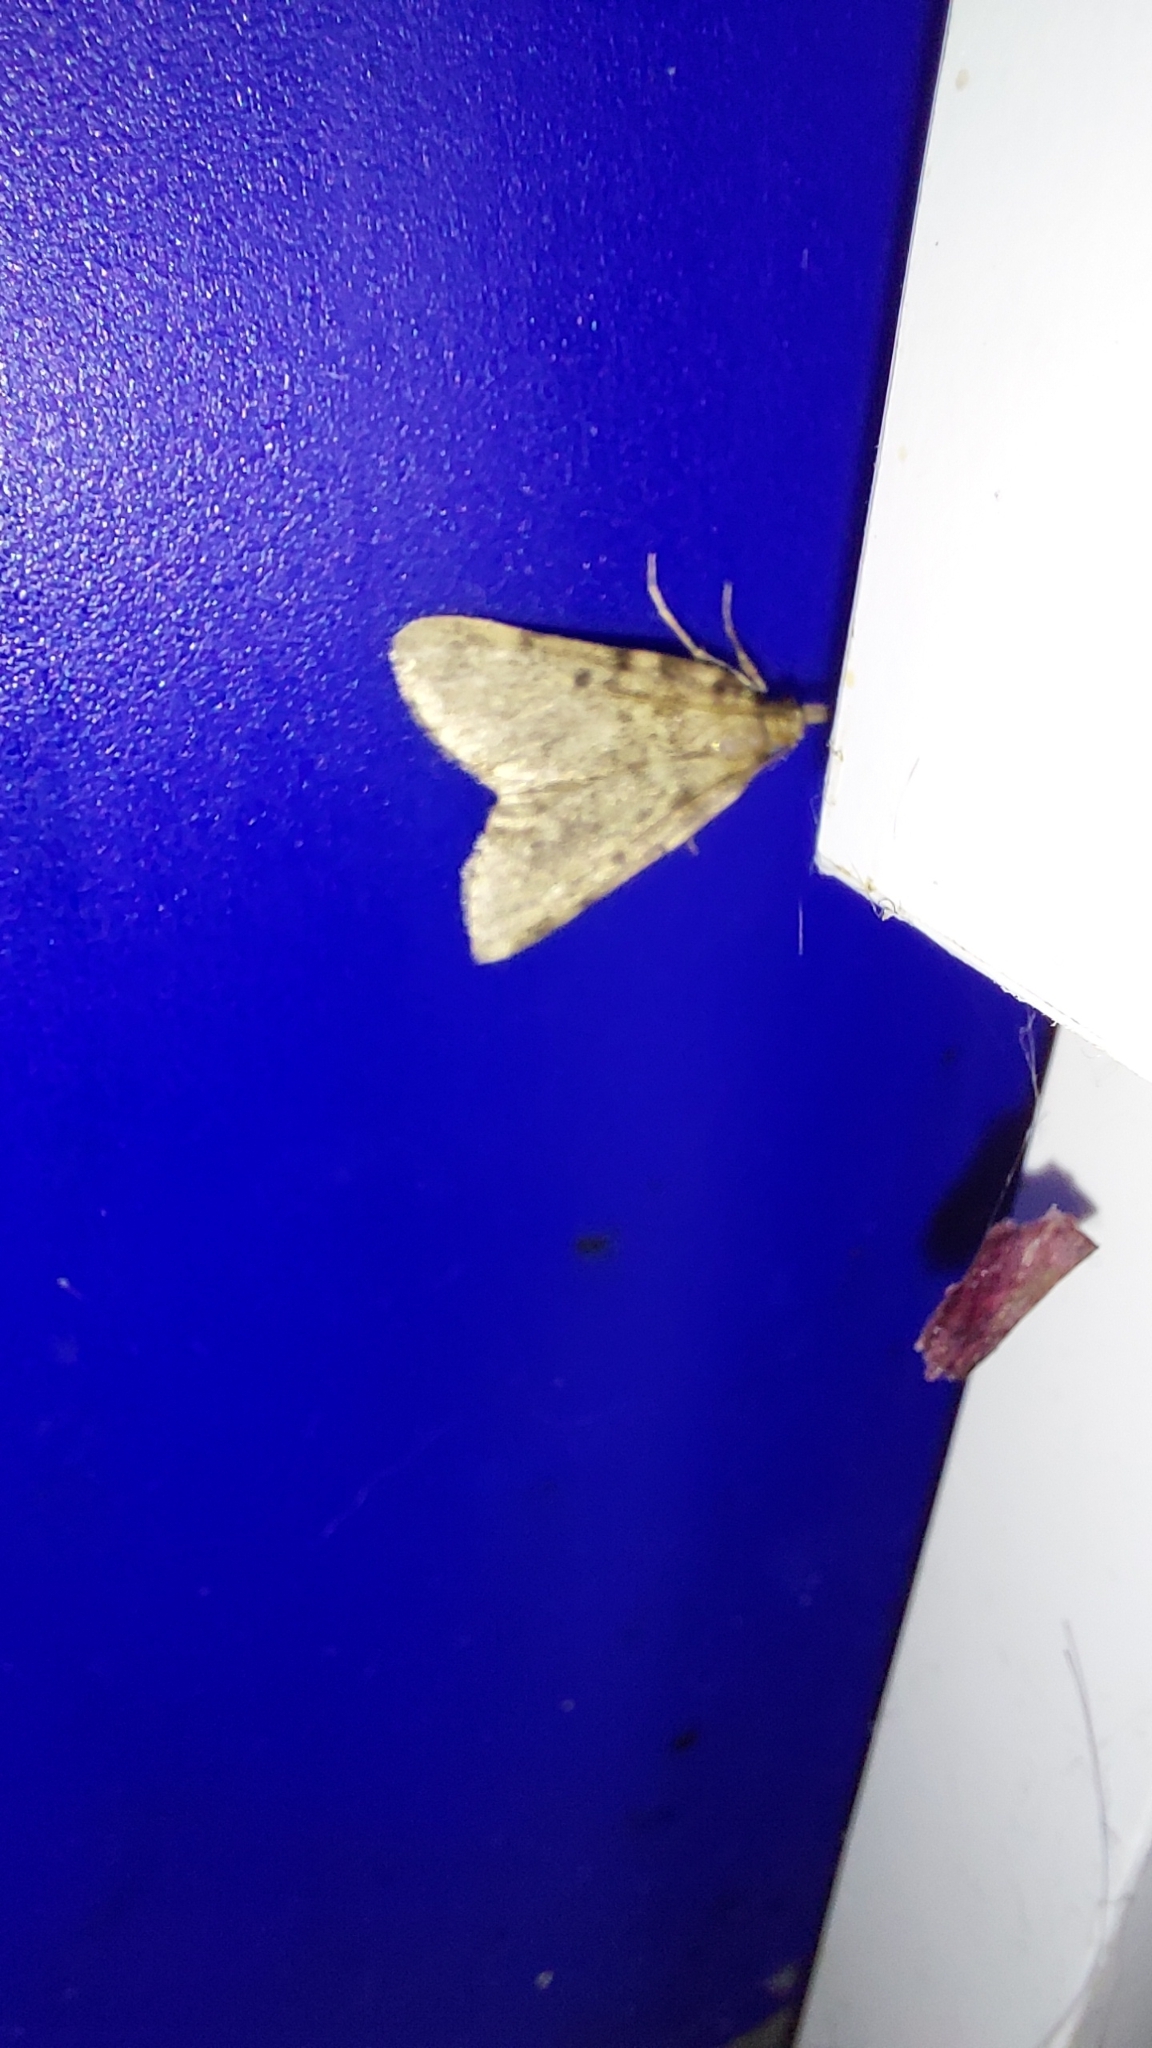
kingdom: Animalia
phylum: Arthropoda
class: Insecta
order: Lepidoptera
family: Pyralidae
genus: Aglossa
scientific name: Aglossa pinguinalis
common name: Large tabby
